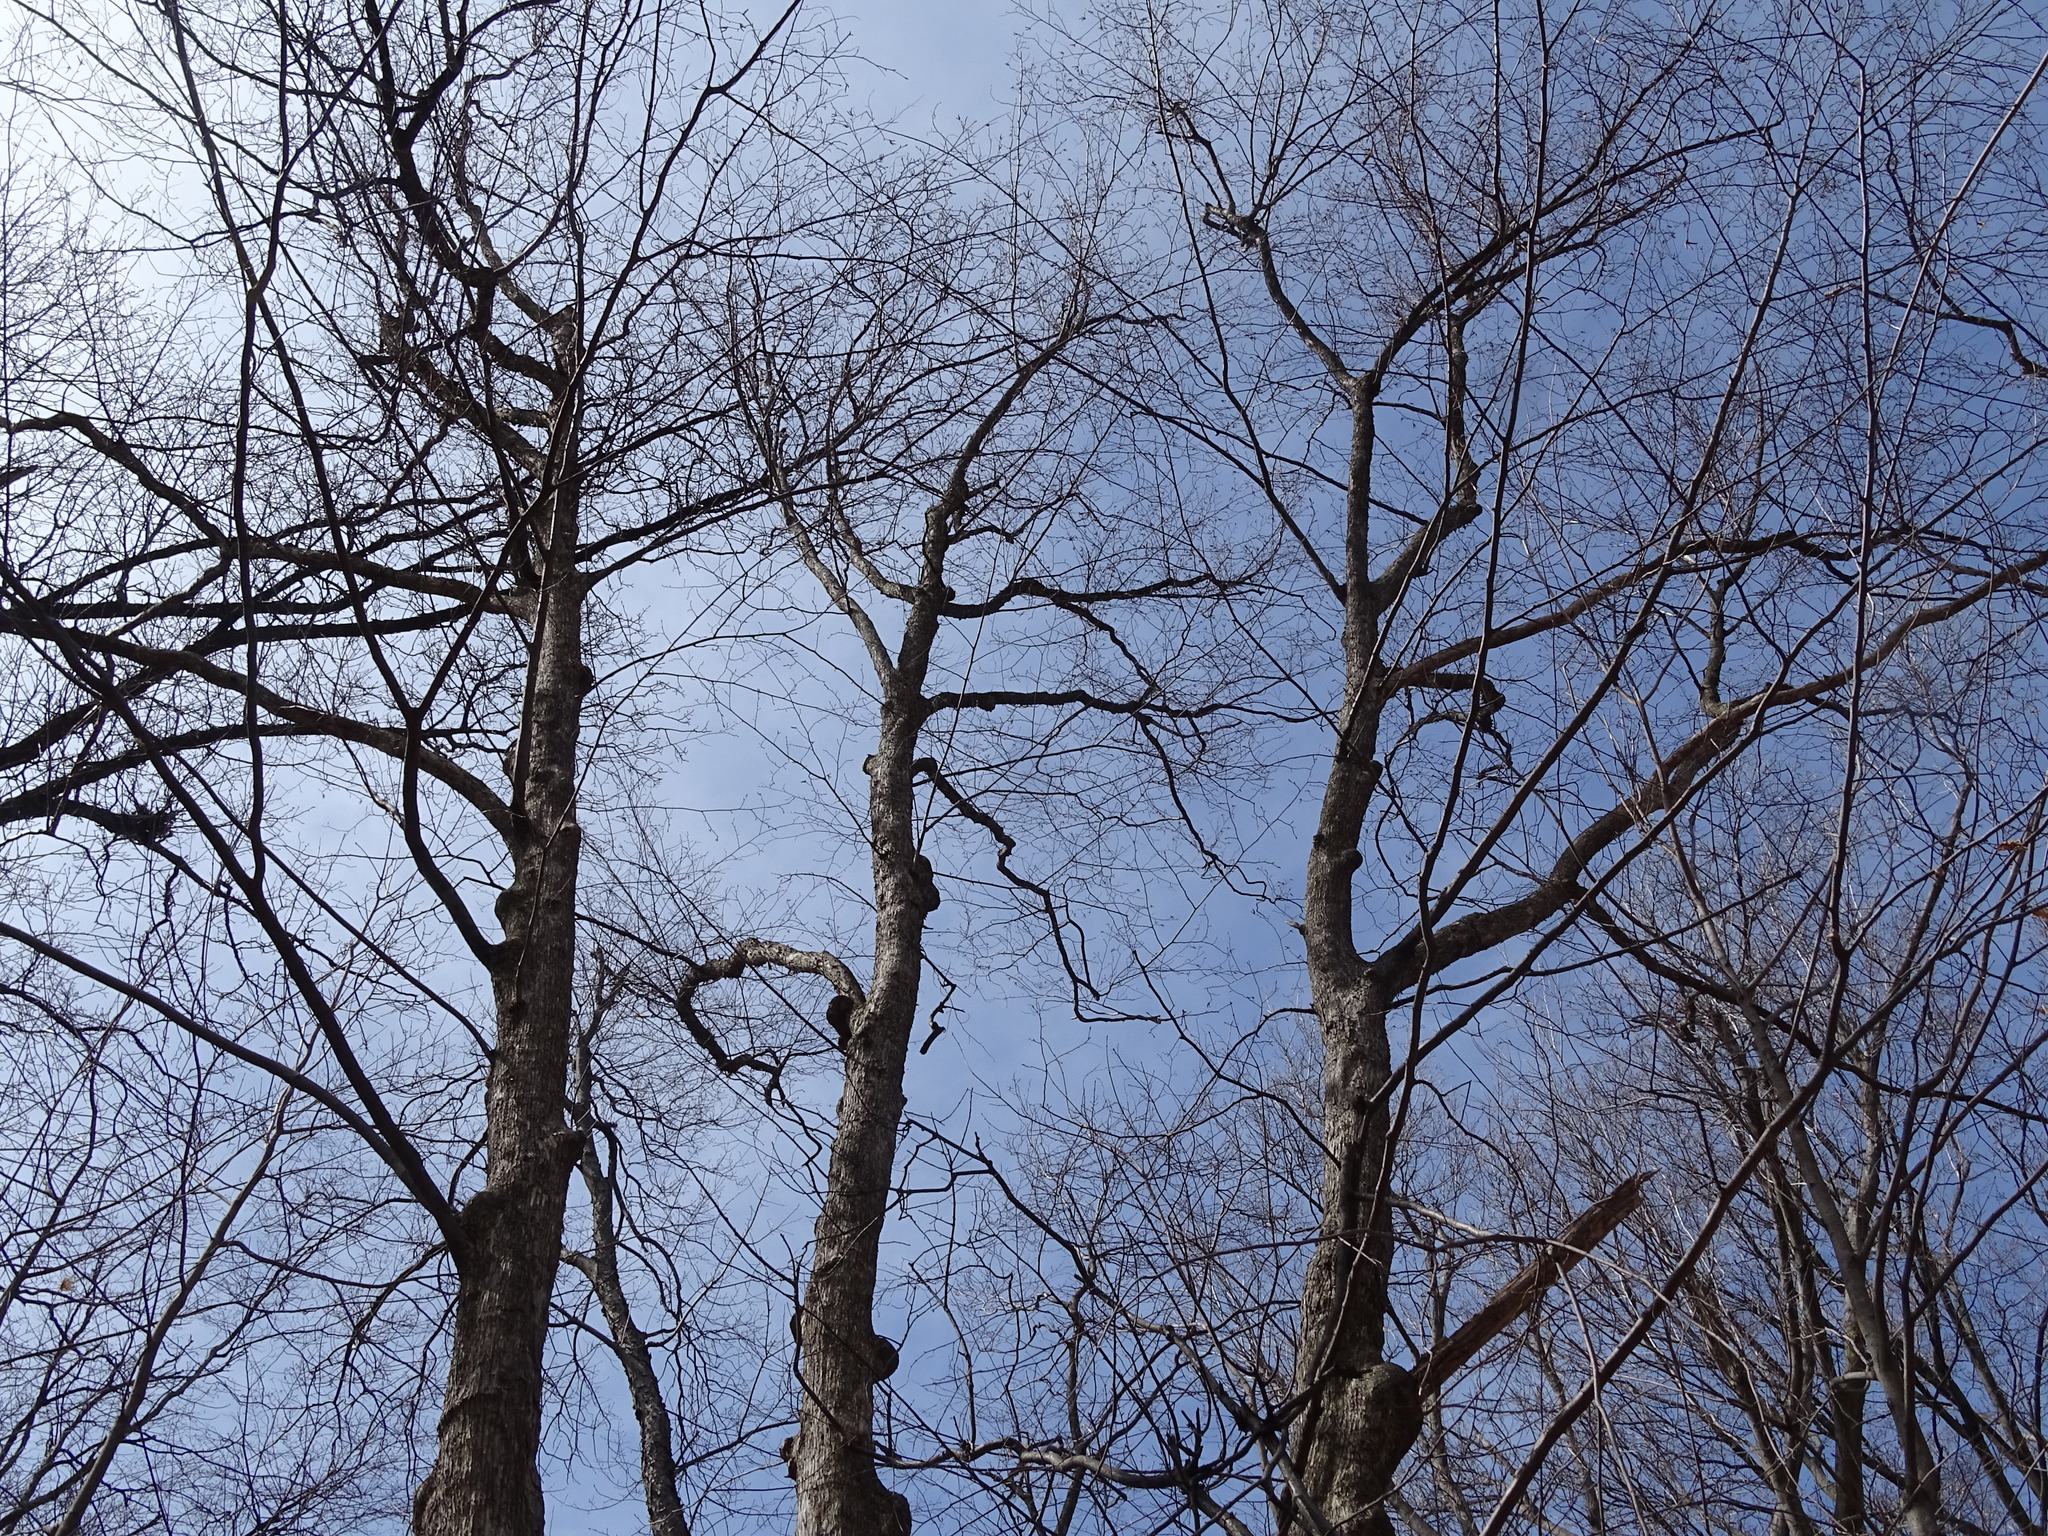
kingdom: Plantae
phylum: Tracheophyta
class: Magnoliopsida
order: Fagales
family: Betulaceae
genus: Ostrya
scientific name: Ostrya virginiana
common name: Ironwood
